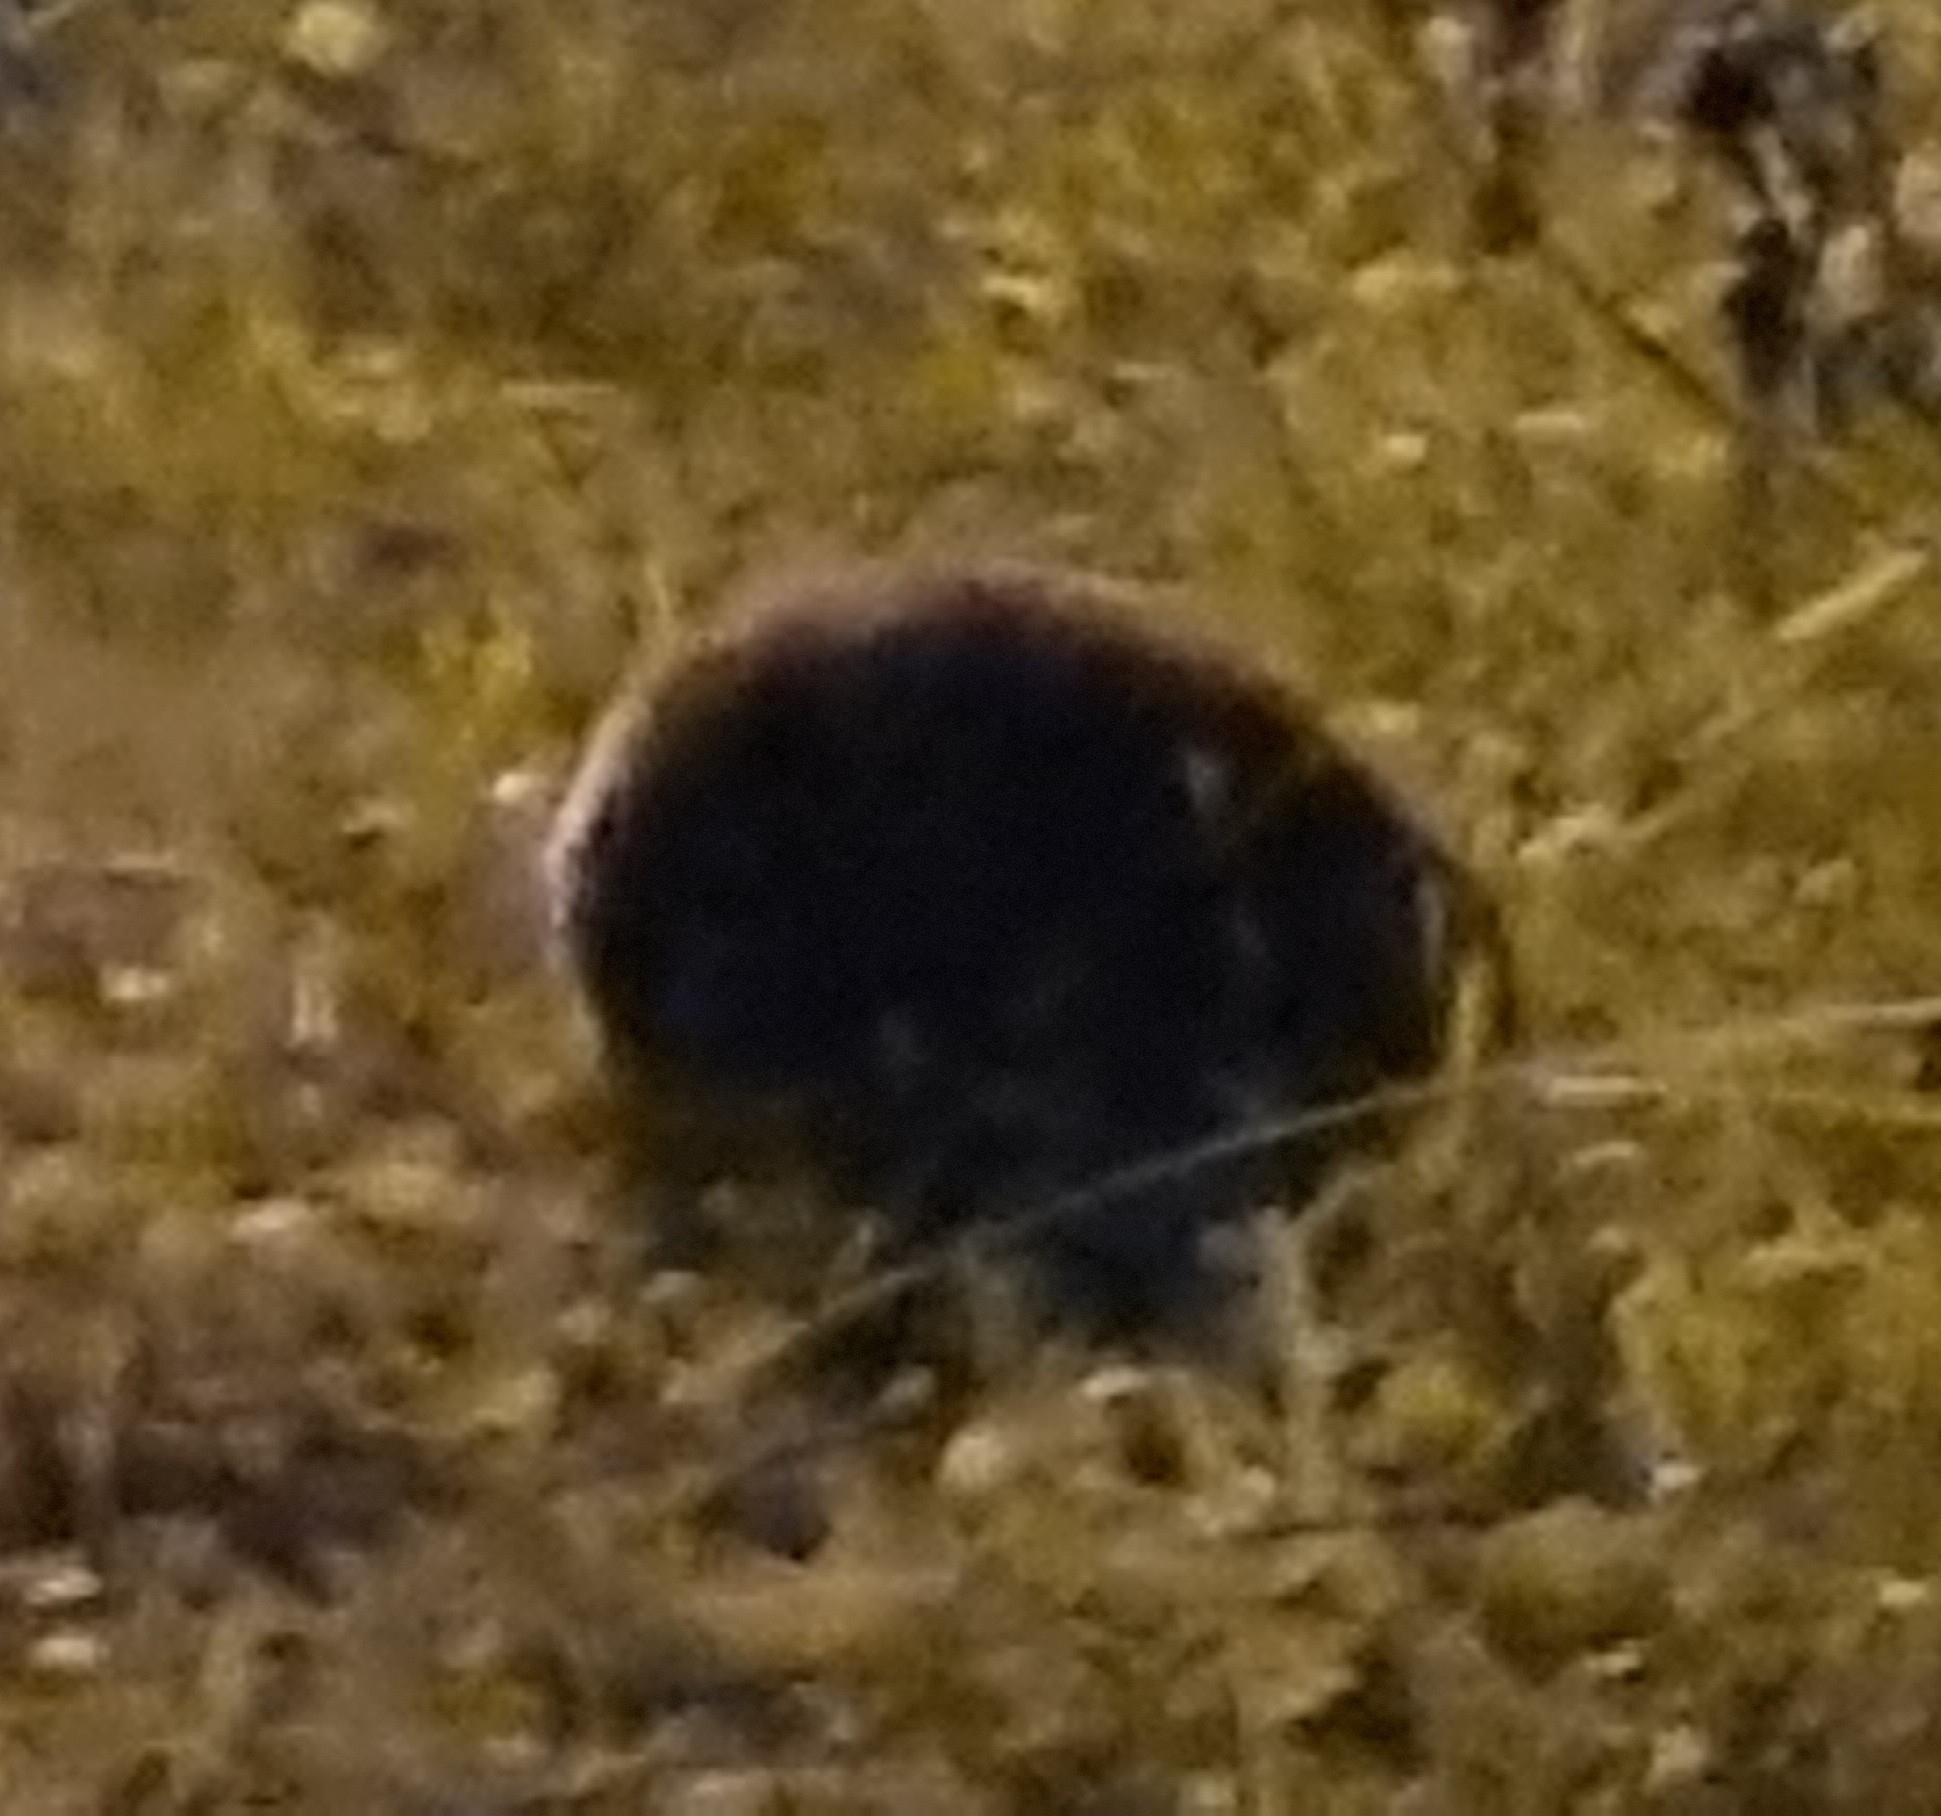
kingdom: Animalia
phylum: Chordata
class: Mammalia
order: Erinaceomorpha
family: Erinaceidae
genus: Erinaceus
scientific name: Erinaceus europaeus
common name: West european hedgehog
